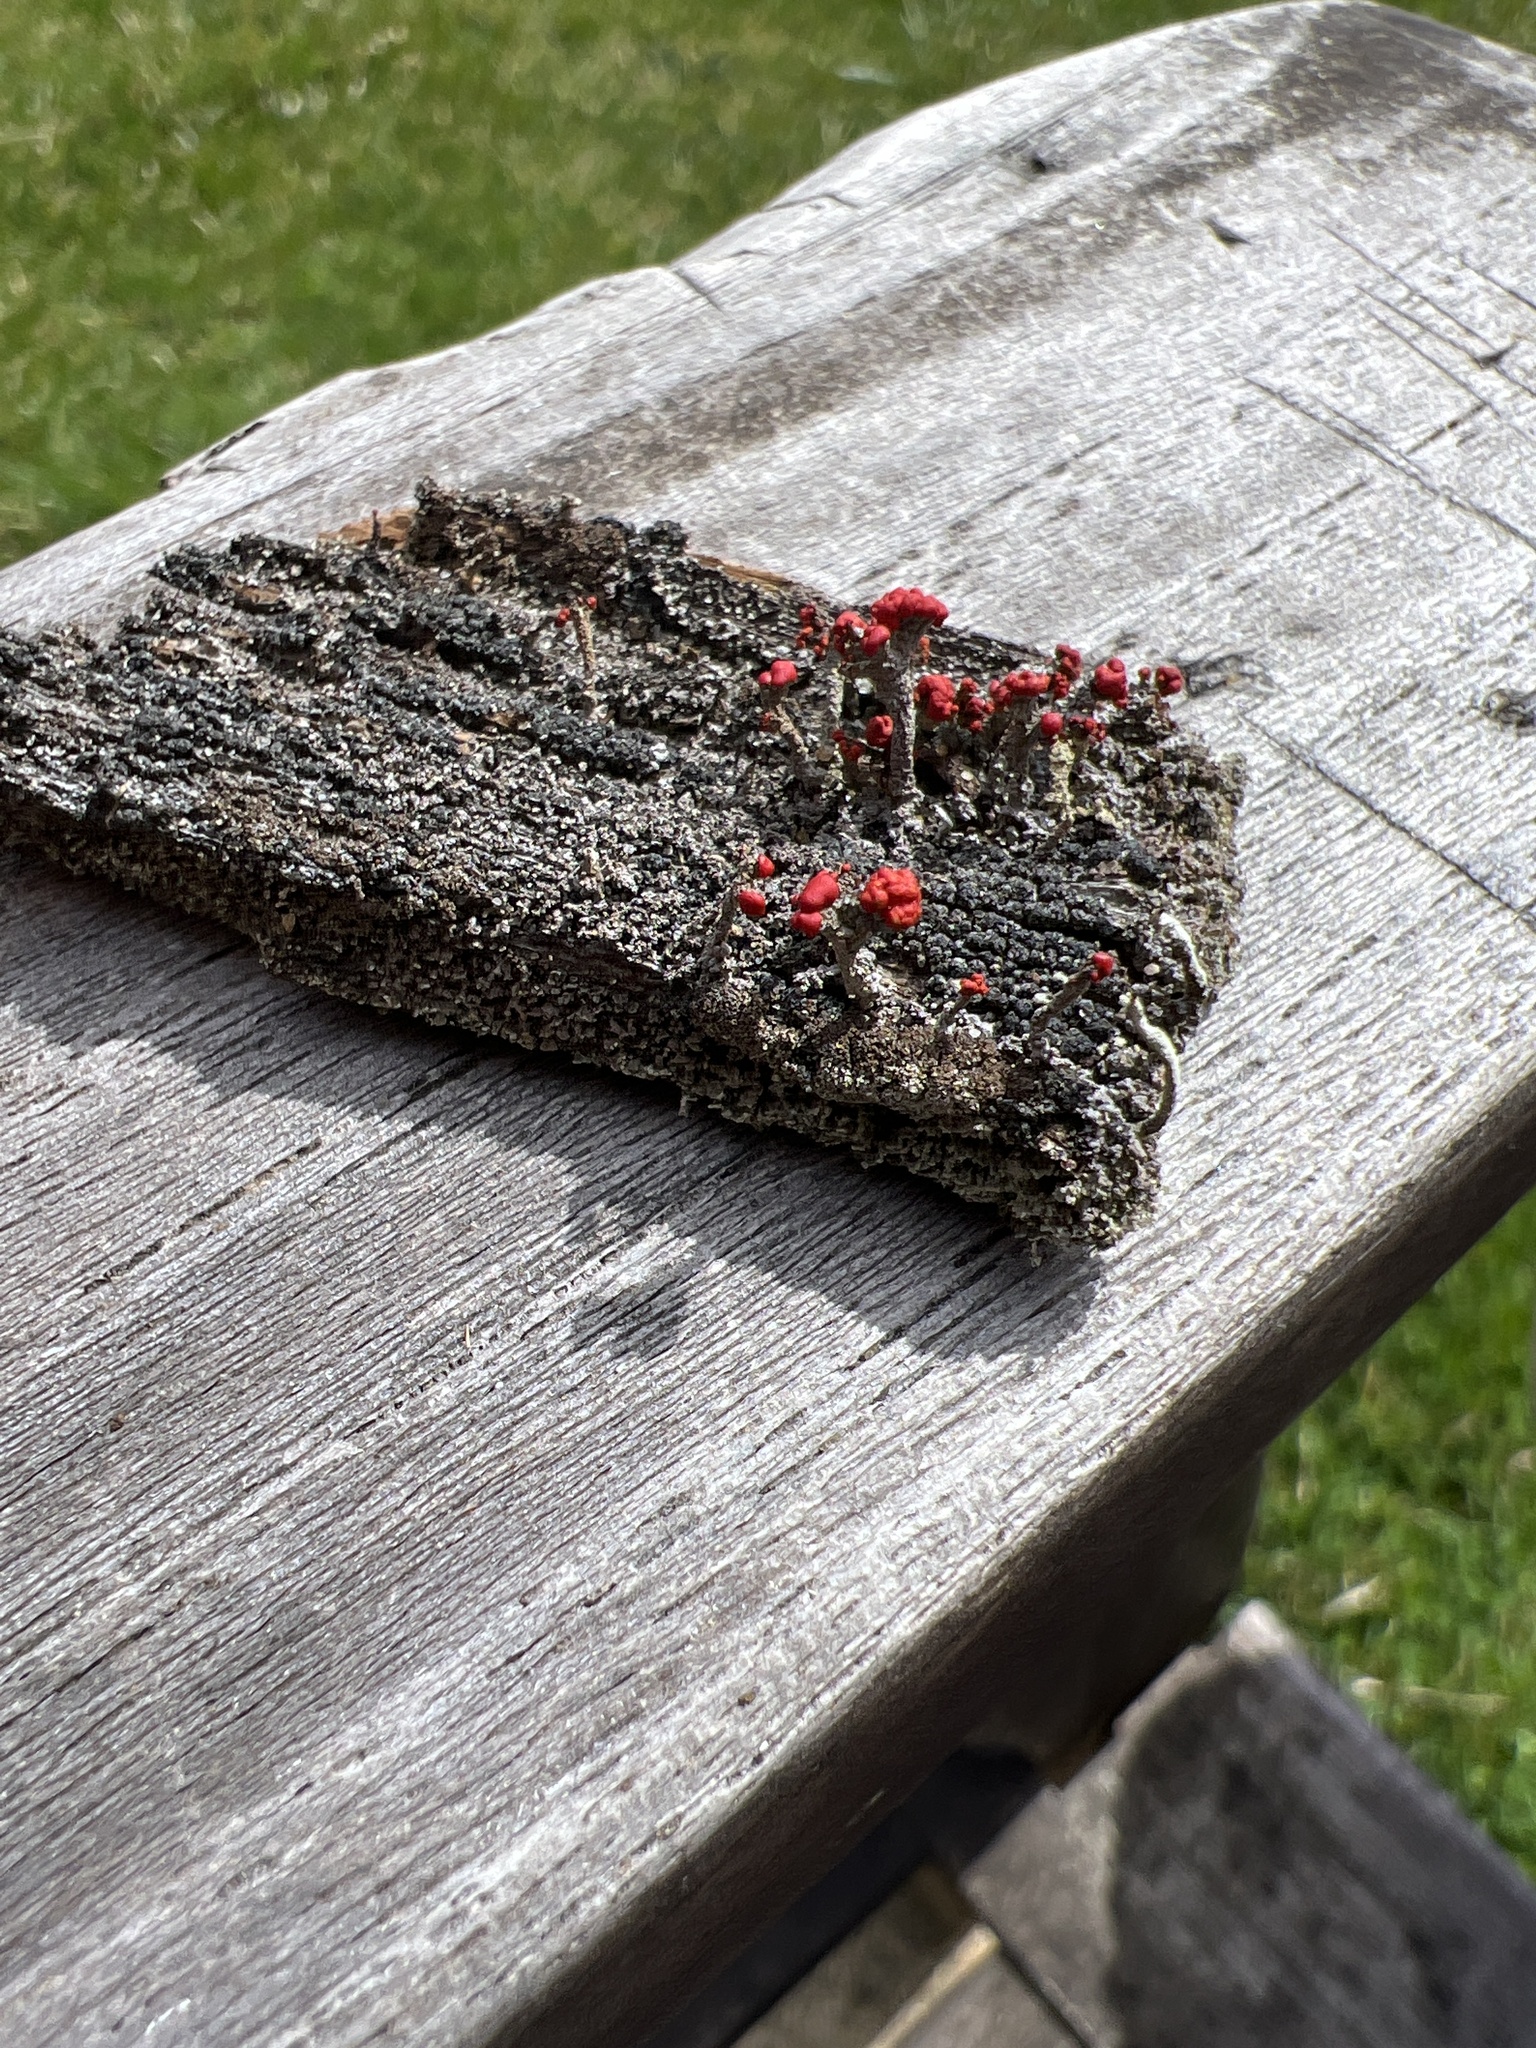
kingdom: Fungi
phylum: Ascomycota
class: Lecanoromycetes
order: Lecanorales
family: Cladoniaceae
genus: Cladonia
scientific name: Cladonia cristatella
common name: British soldier lichen
